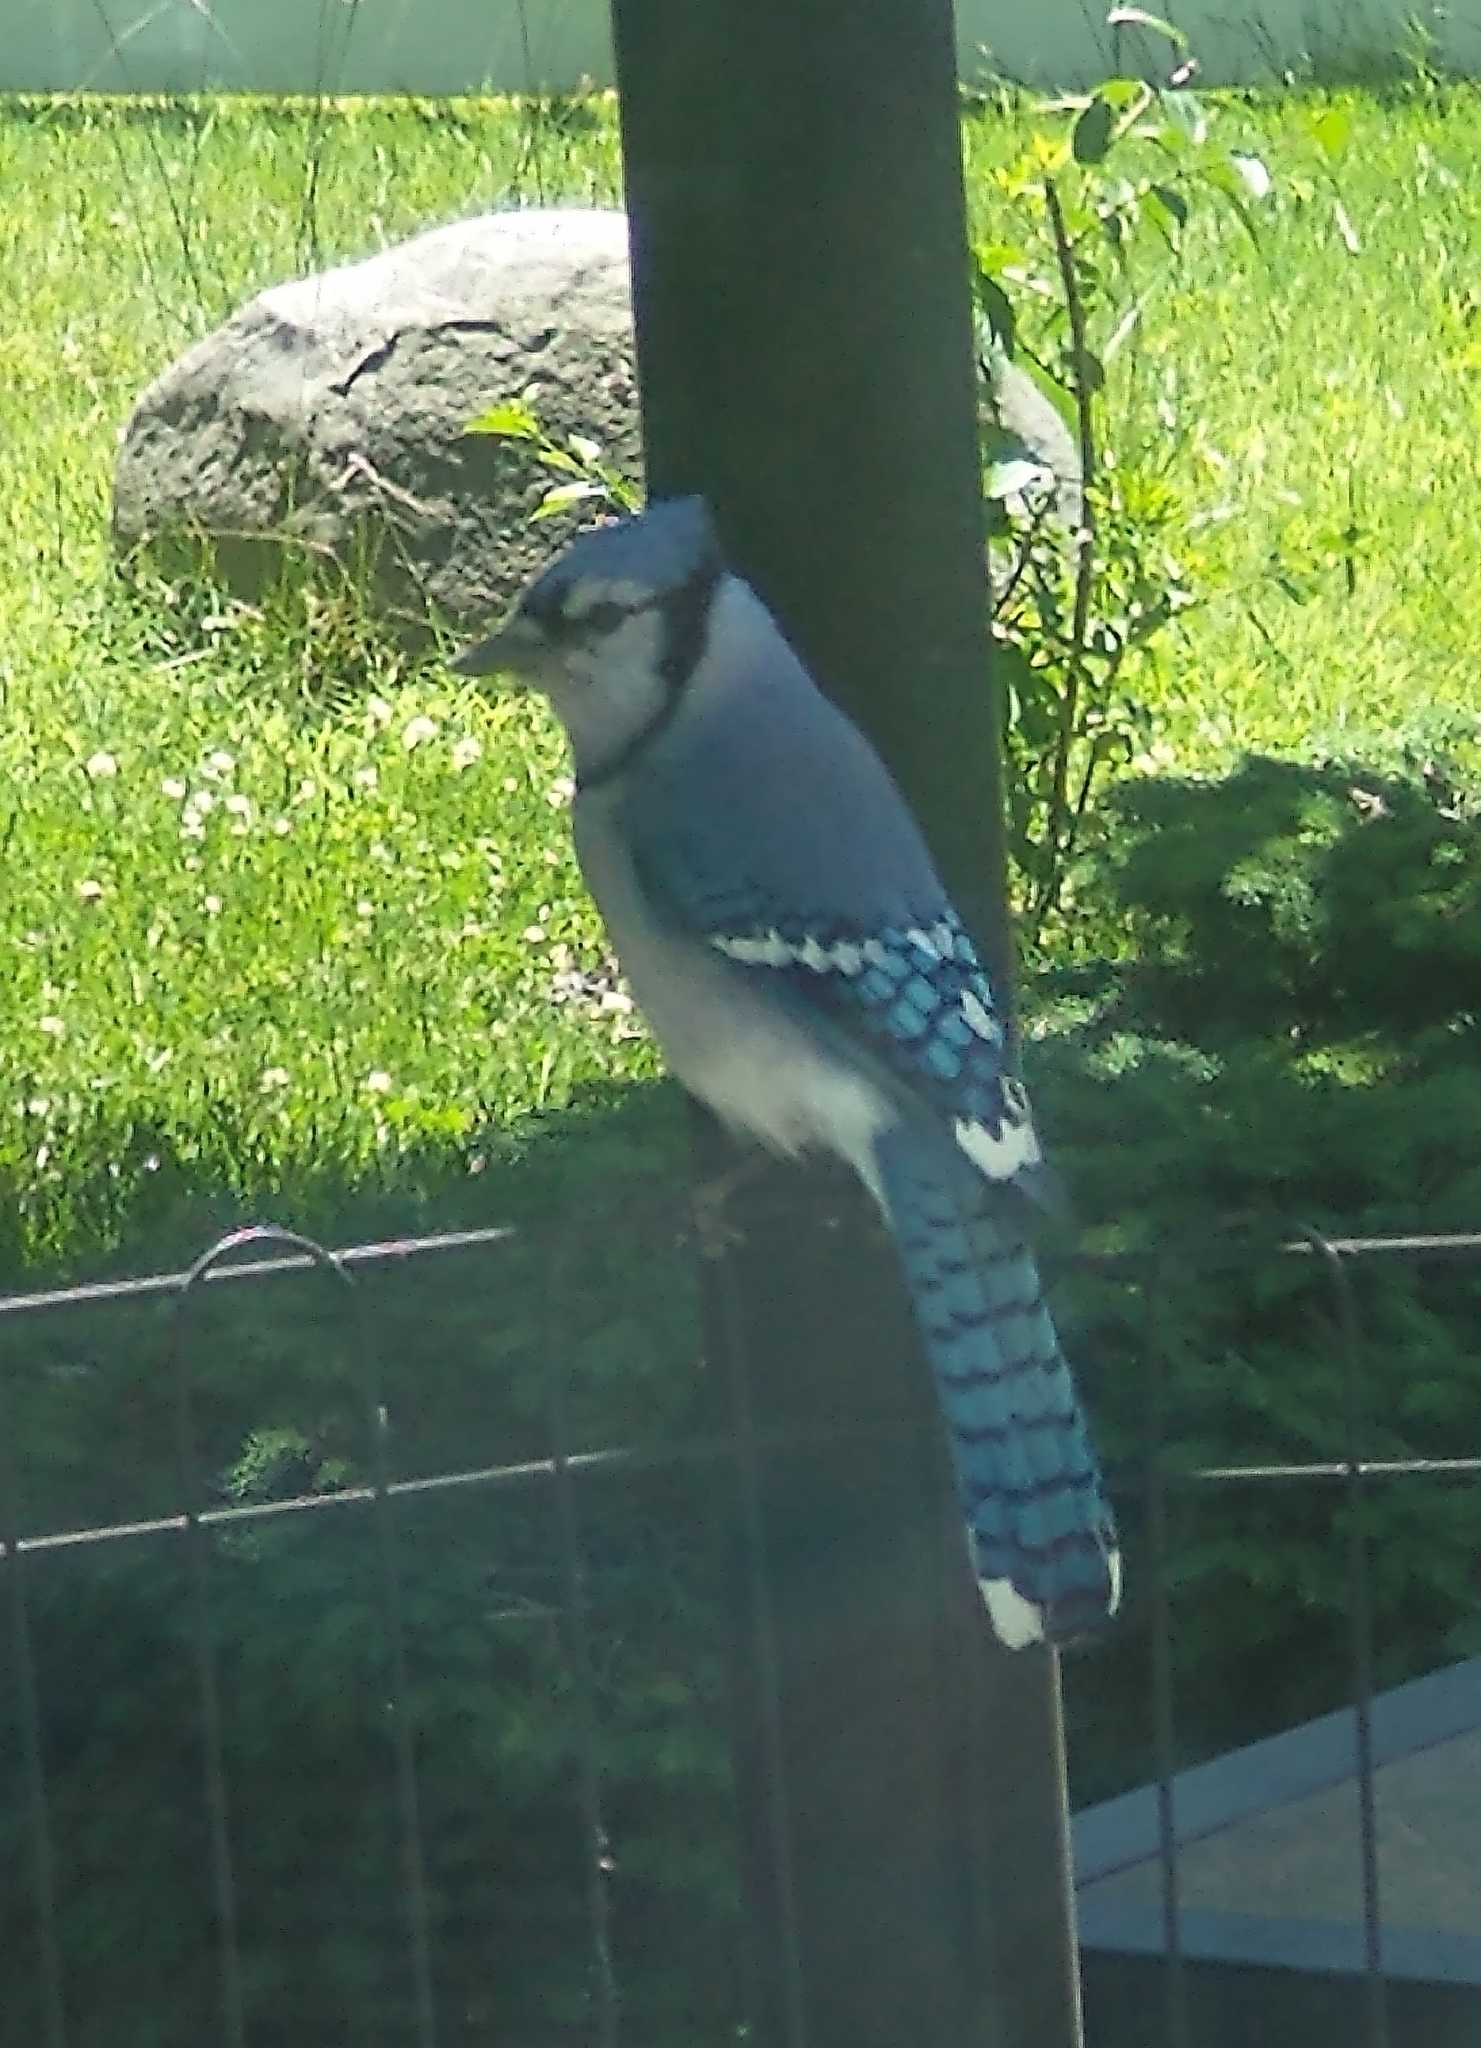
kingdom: Animalia
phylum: Chordata
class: Aves
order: Passeriformes
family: Corvidae
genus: Cyanocitta
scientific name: Cyanocitta cristata
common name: Blue jay
